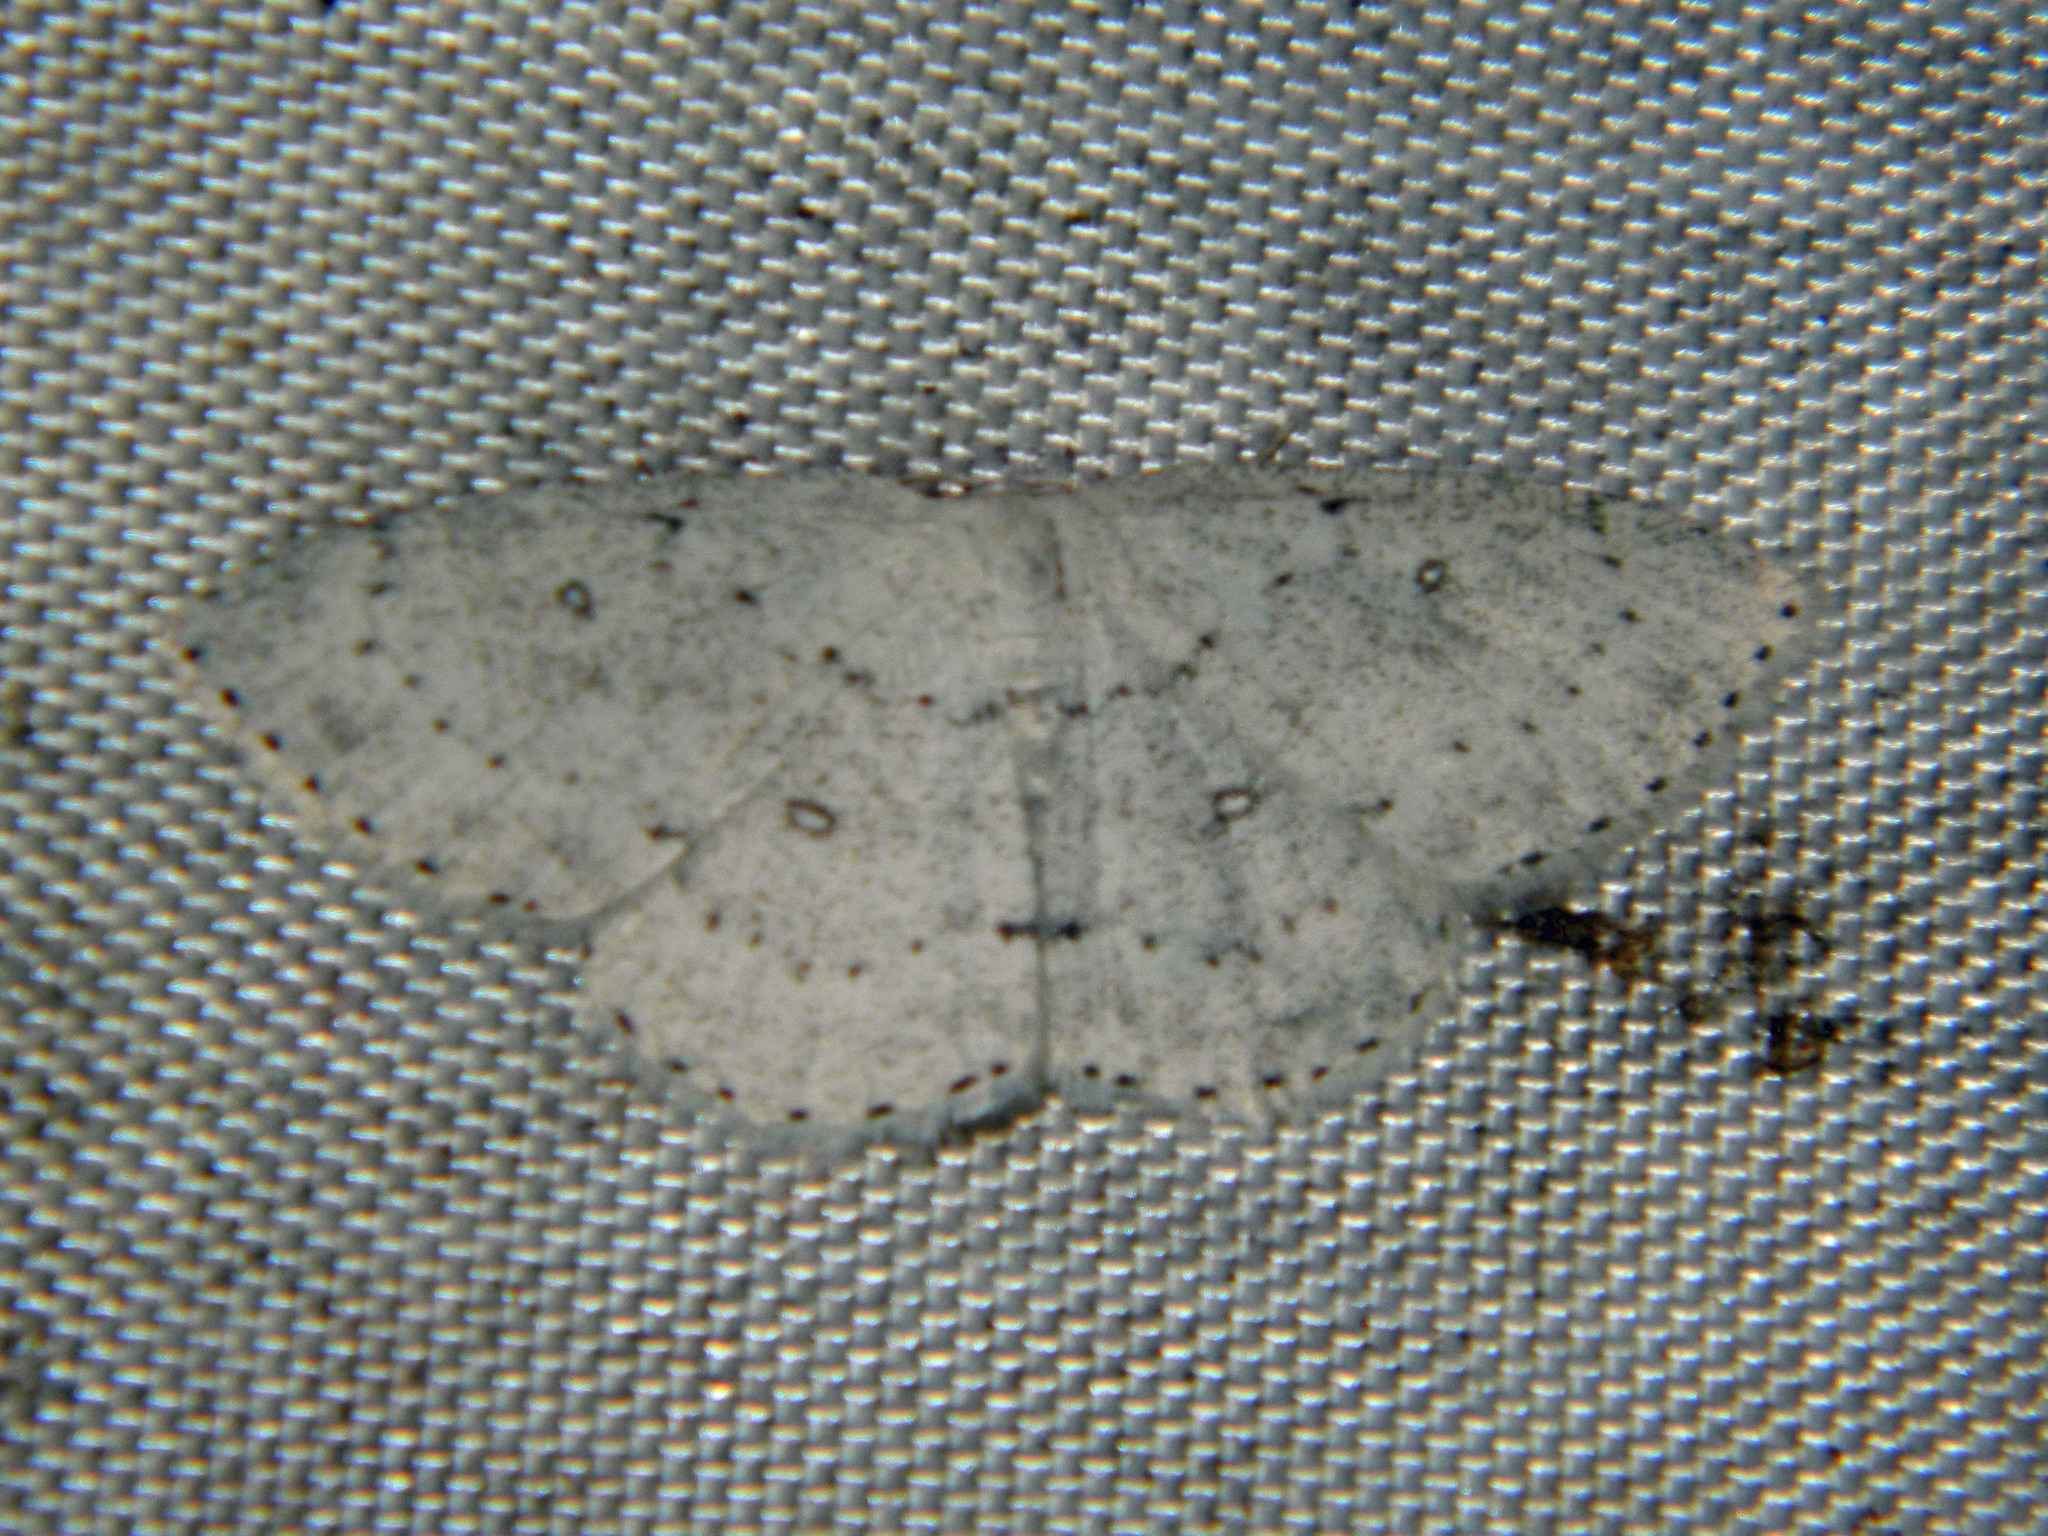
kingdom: Animalia
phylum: Arthropoda
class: Insecta
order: Lepidoptera
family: Geometridae
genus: Cyclophora
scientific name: Cyclophora pendulinaria
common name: Sweet fern geometer
